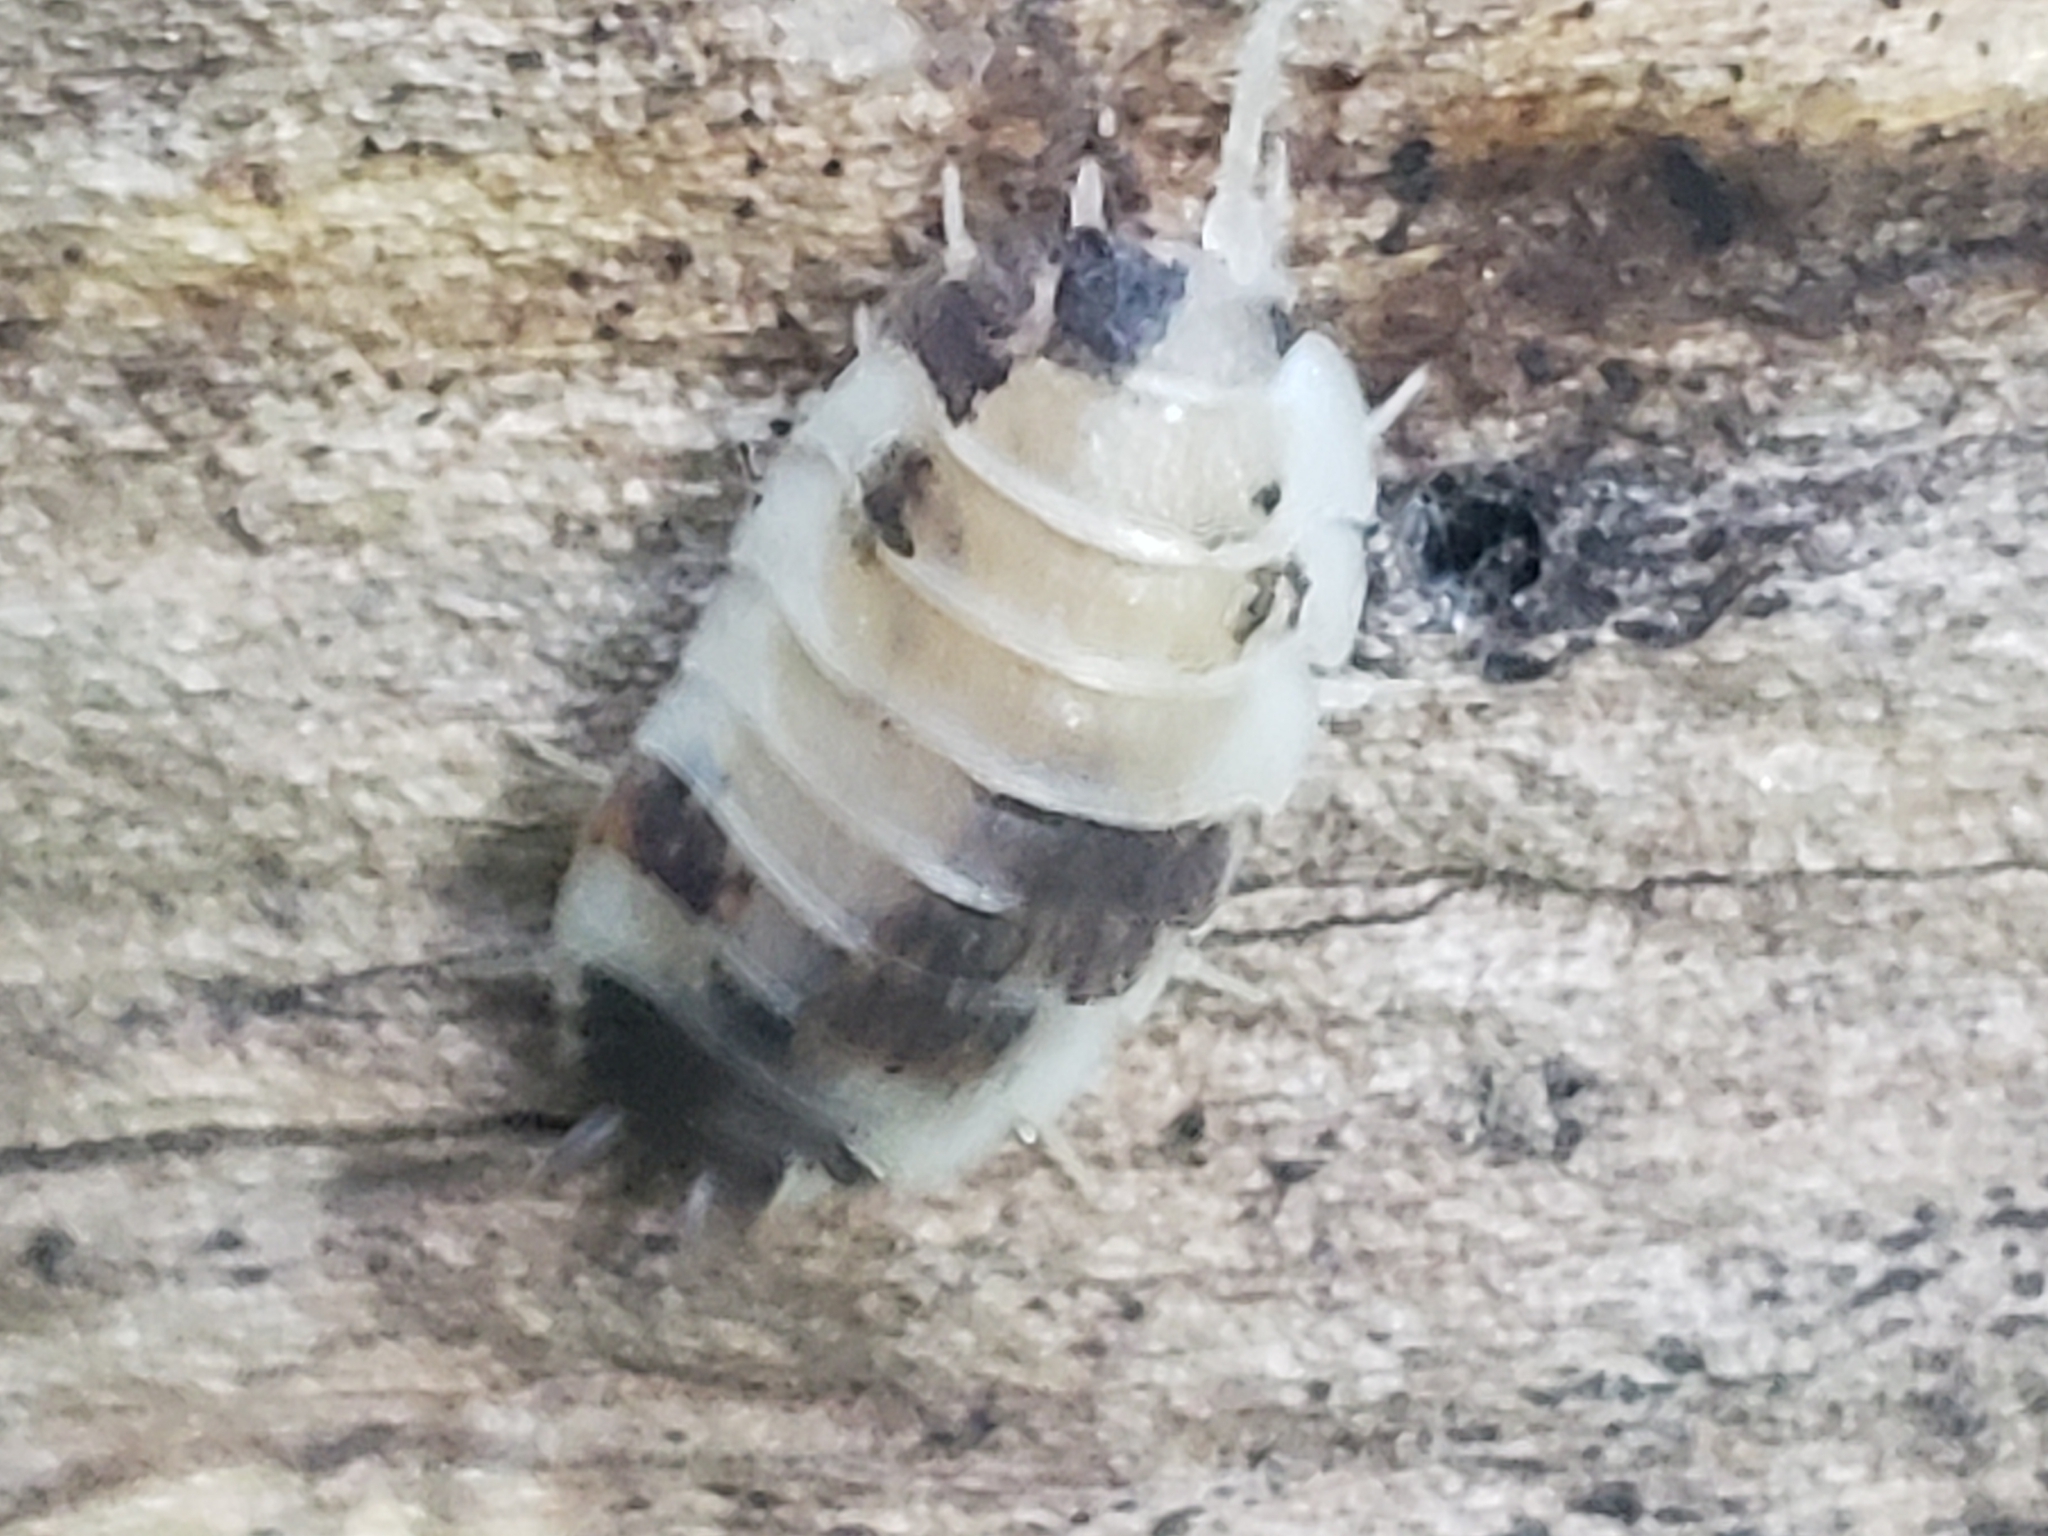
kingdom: Animalia
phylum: Arthropoda
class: Malacostraca
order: Isopoda
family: Trachelipodidae
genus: Trachelipus
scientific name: Trachelipus rathkii
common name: Isopod
